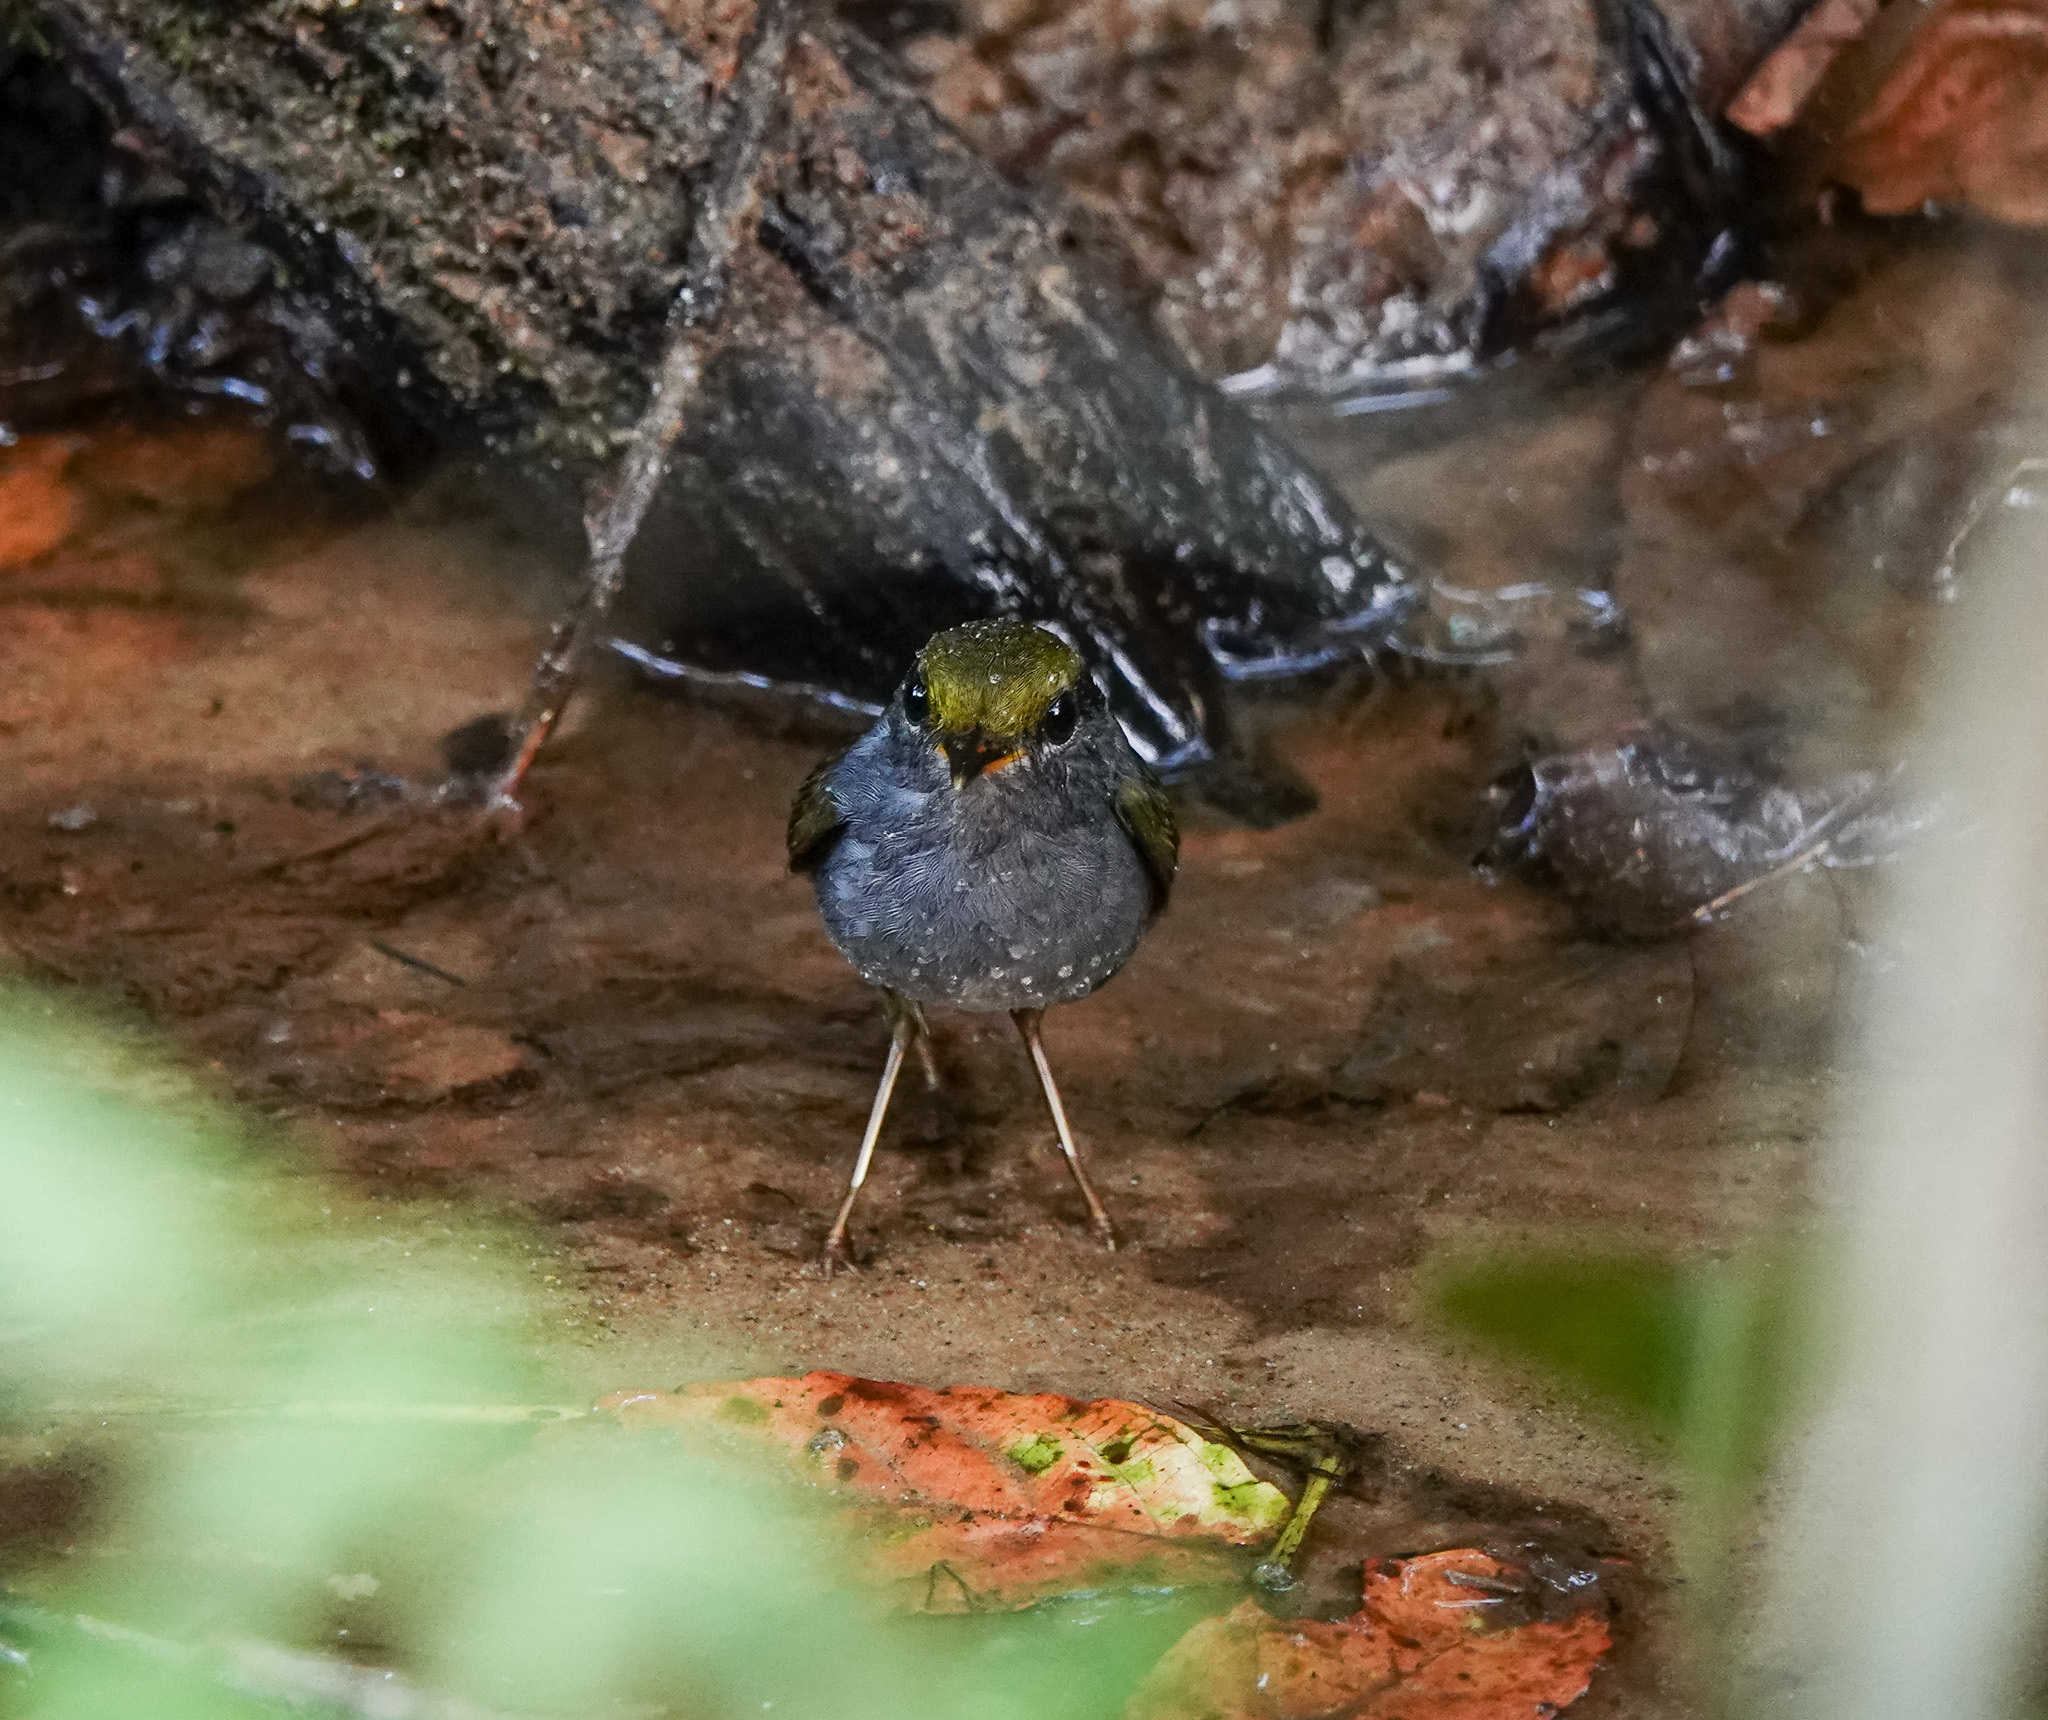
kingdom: Animalia
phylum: Chordata
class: Aves
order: Passeriformes
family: Cettiidae
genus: Tesia
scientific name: Tesia cyaniventer
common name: Grey-bellied tesia
